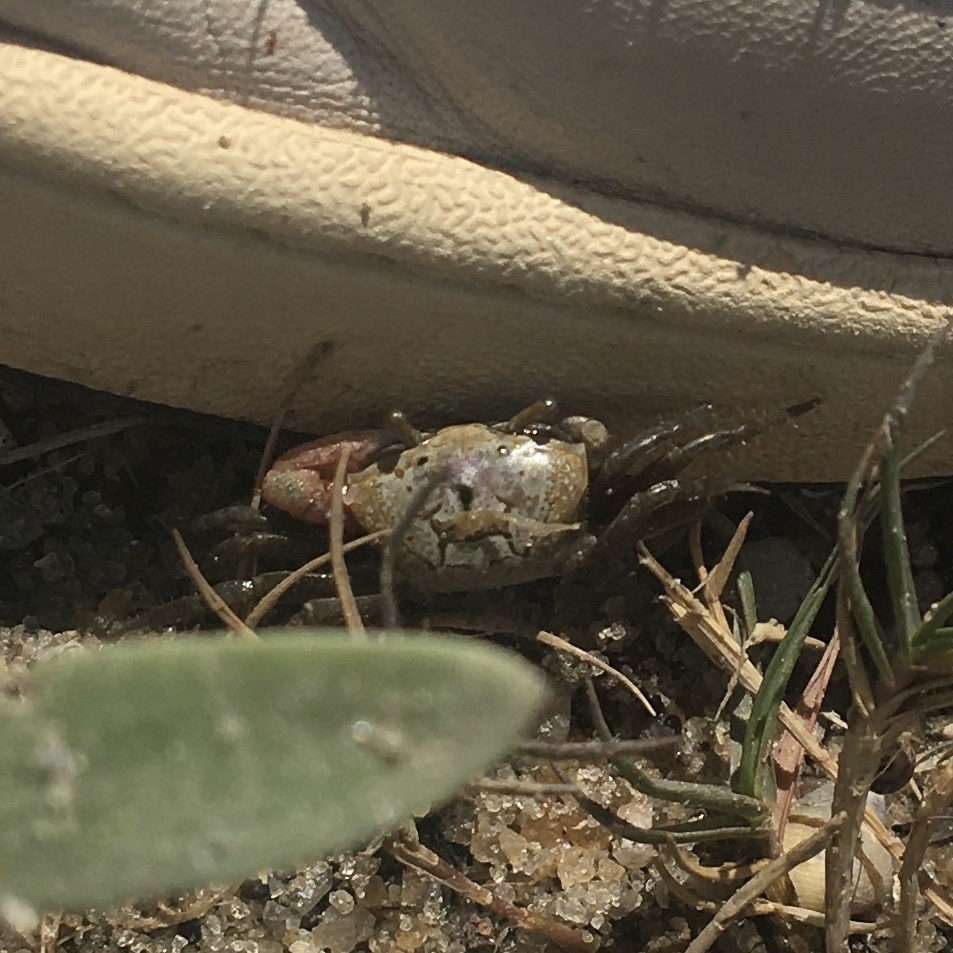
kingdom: Animalia
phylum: Arthropoda
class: Malacostraca
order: Decapoda
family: Ocypodidae
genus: Leptuca
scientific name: Leptuca pugilator
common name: Atlantic sand fiddler crab
